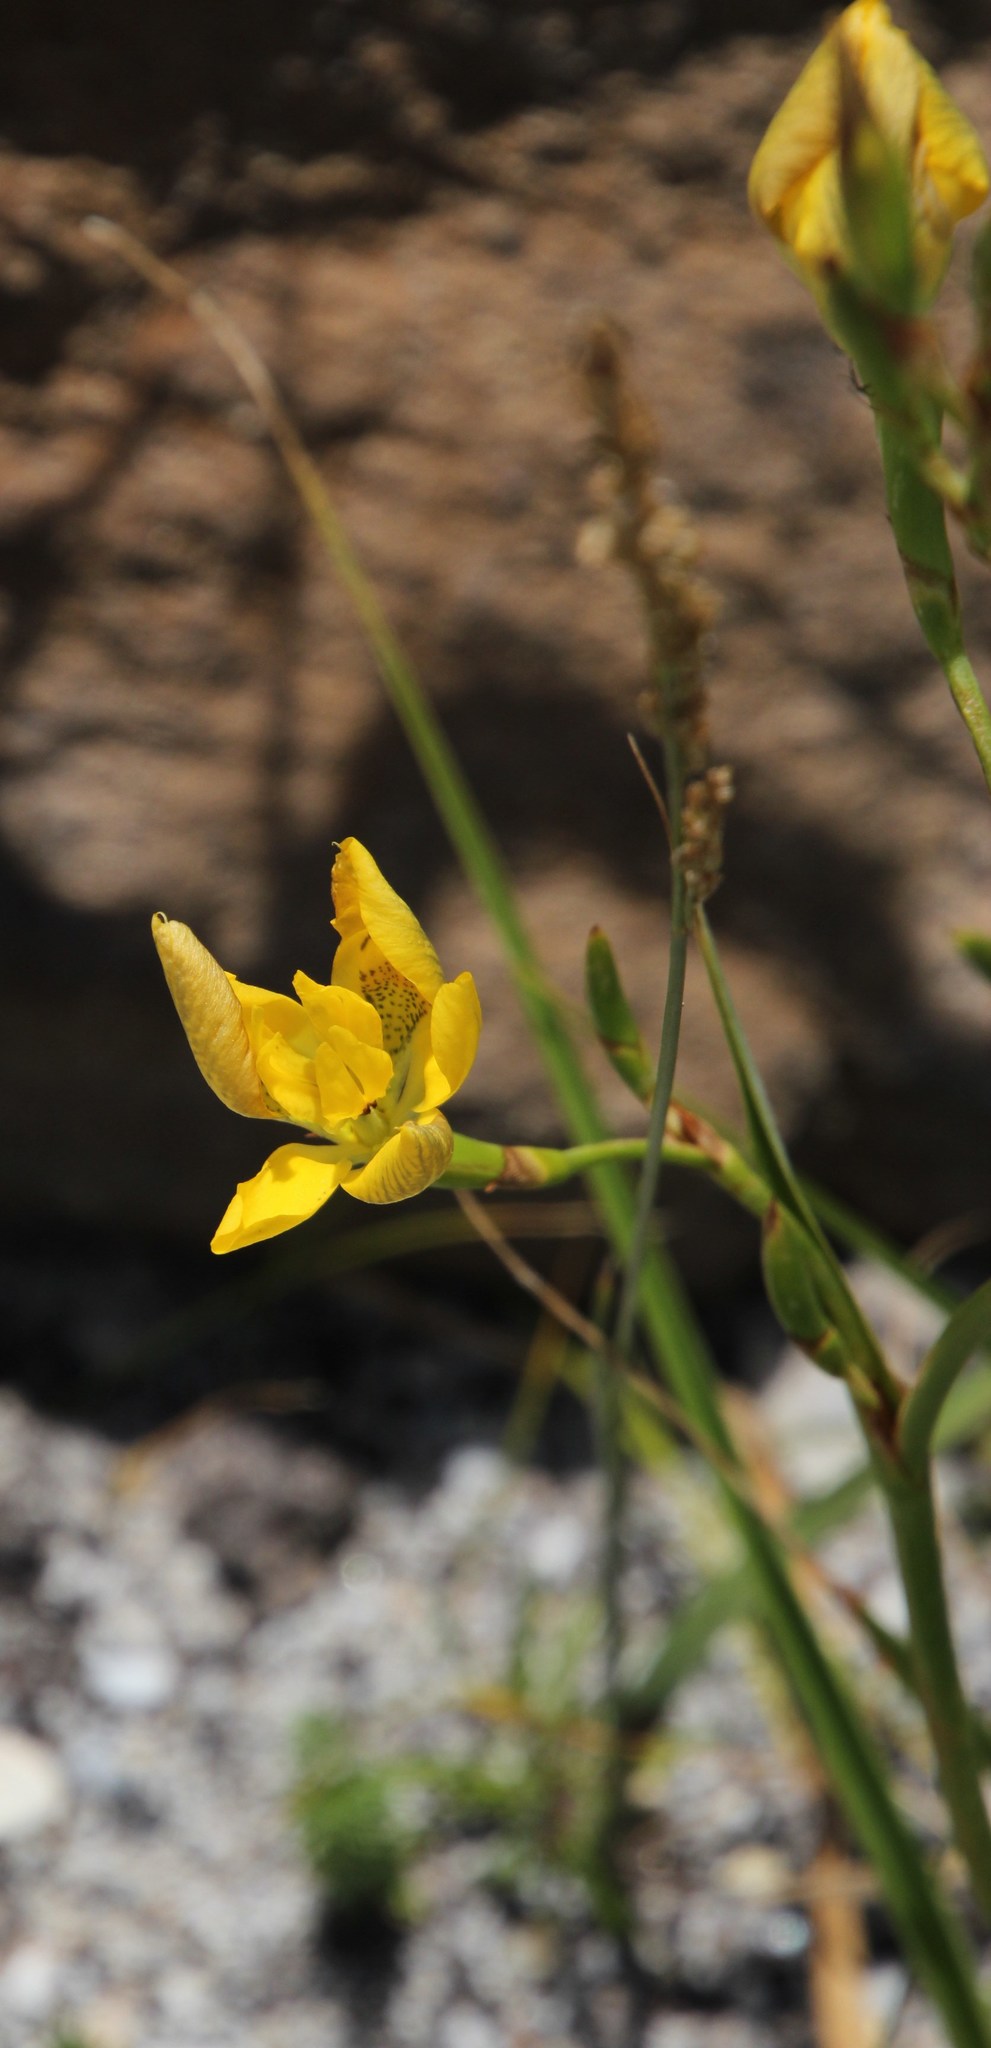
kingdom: Plantae
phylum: Tracheophyta
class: Liliopsida
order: Asparagales
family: Iridaceae
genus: Moraea
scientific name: Moraea ramosissima
